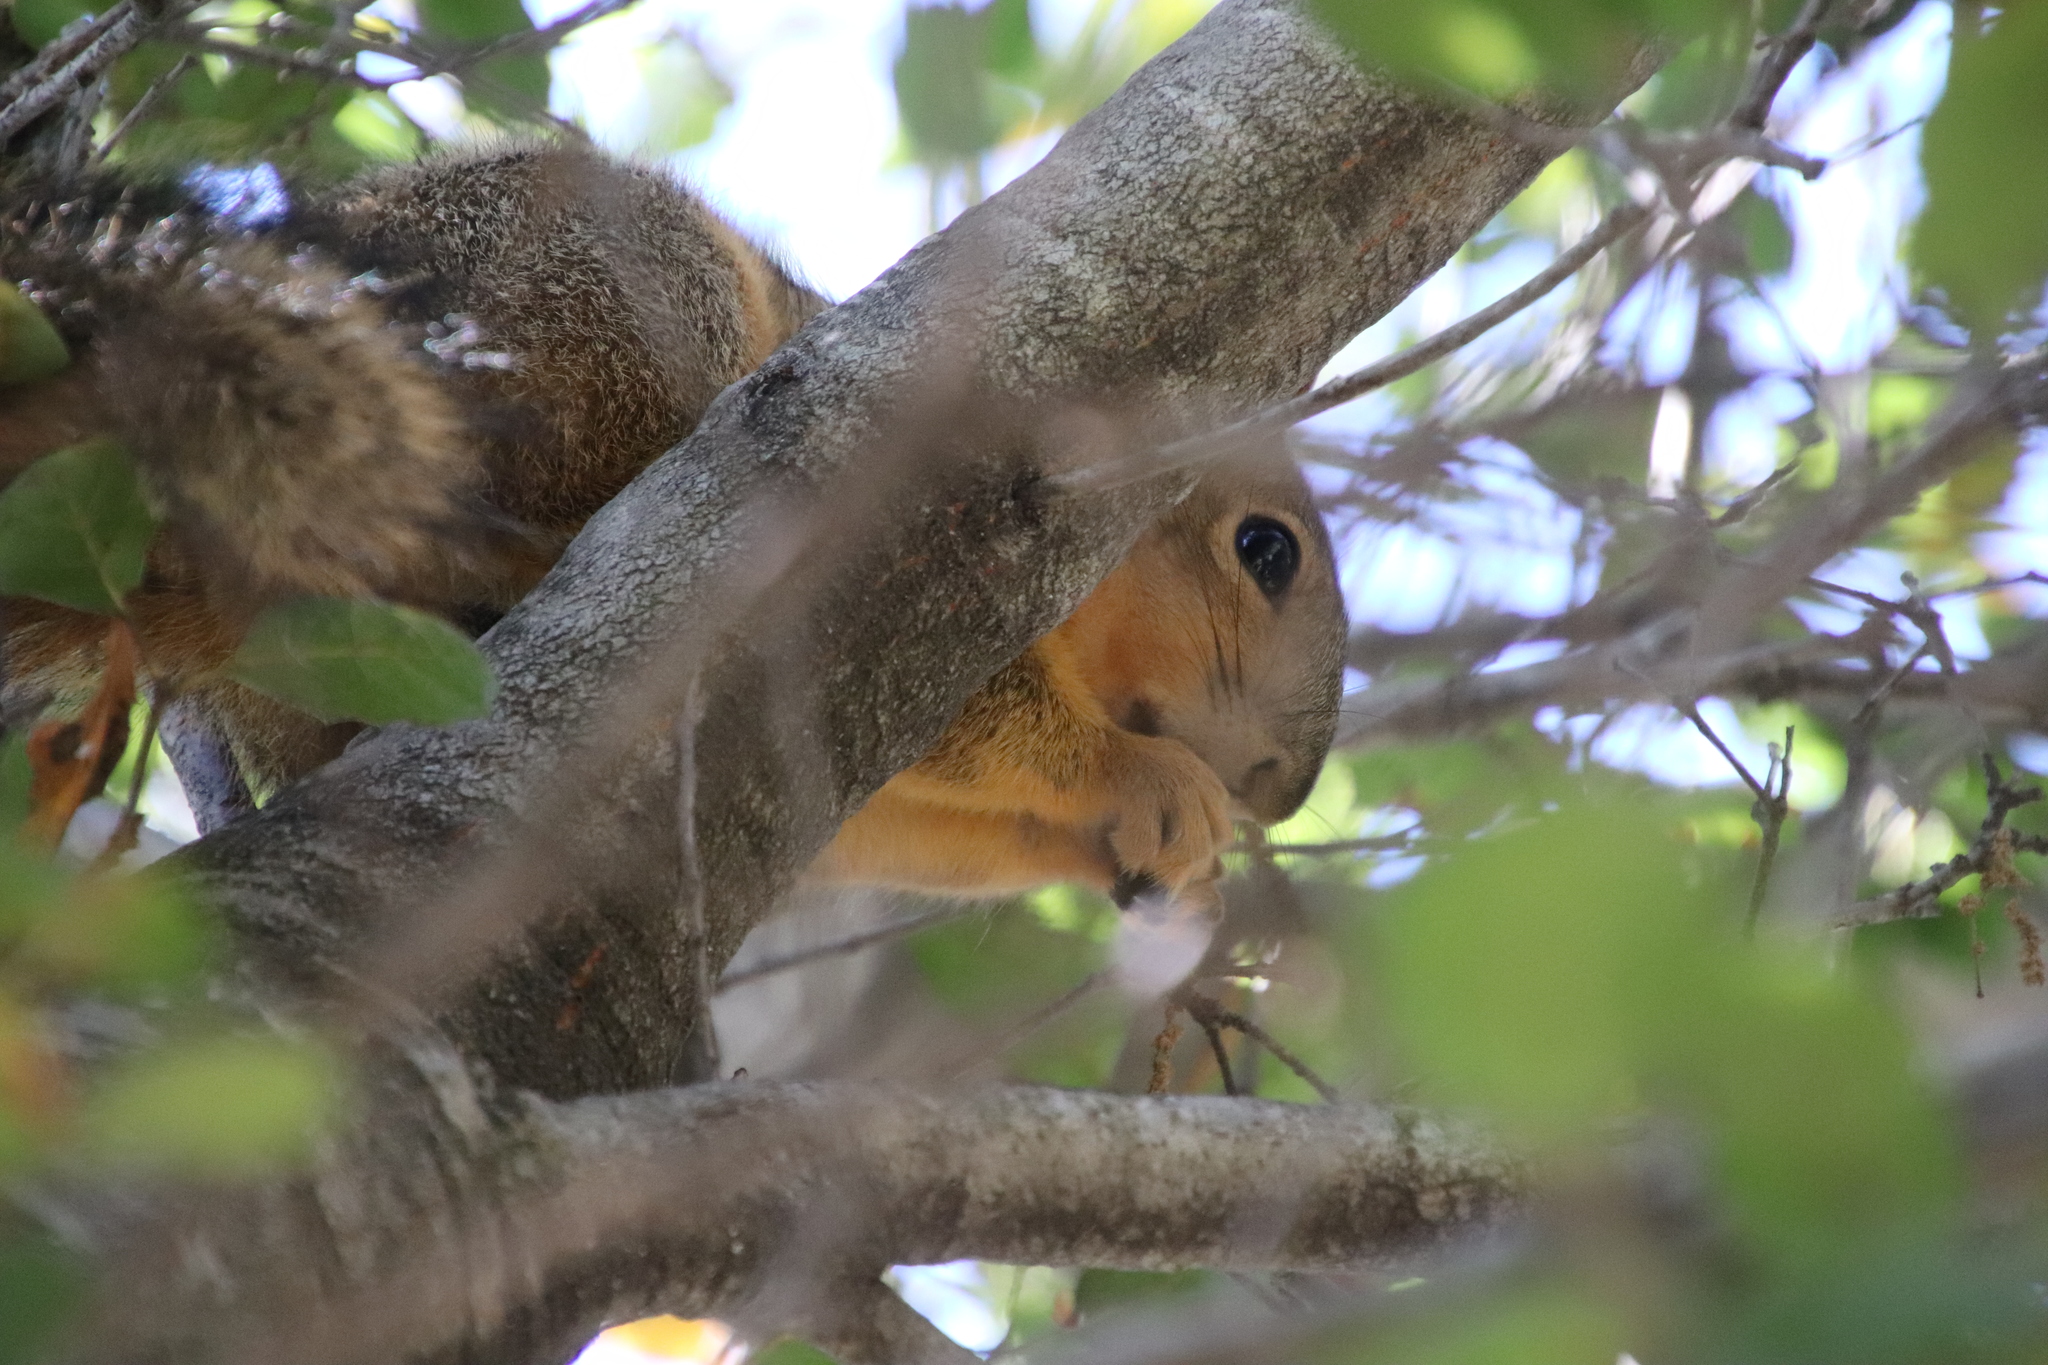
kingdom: Animalia
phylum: Chordata
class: Mammalia
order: Rodentia
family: Sciuridae
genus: Sciurus
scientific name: Sciurus niger
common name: Fox squirrel
